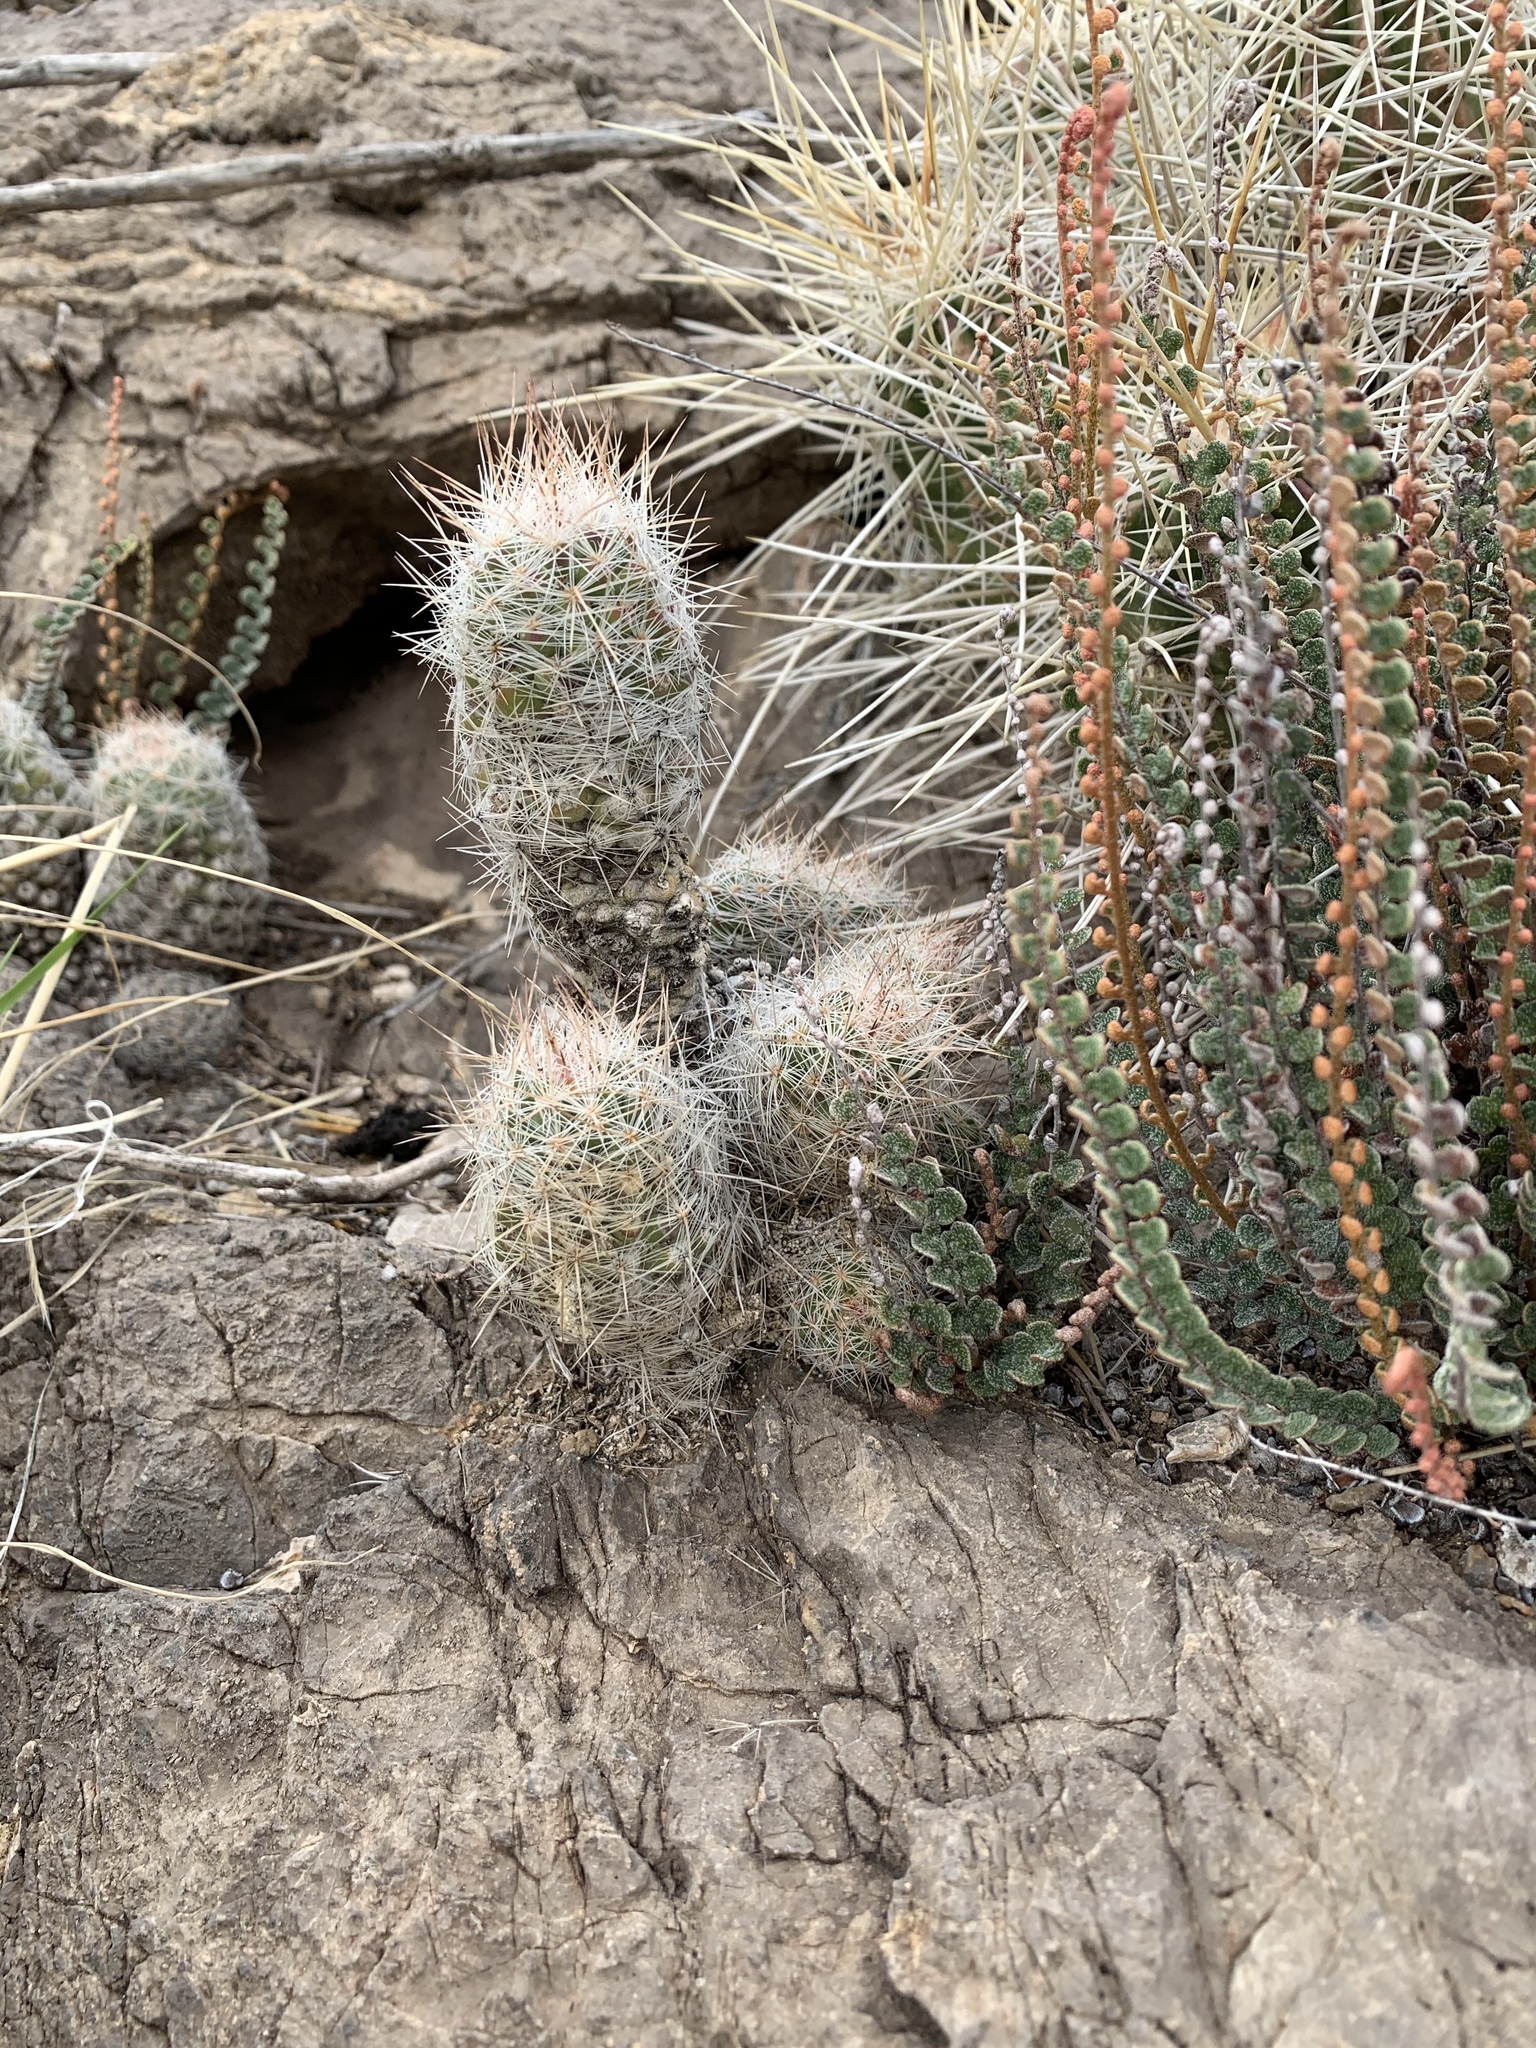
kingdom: Plantae
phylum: Tracheophyta
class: Magnoliopsida
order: Caryophyllales
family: Cactaceae
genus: Pelecyphora
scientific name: Pelecyphora tuberculosa
